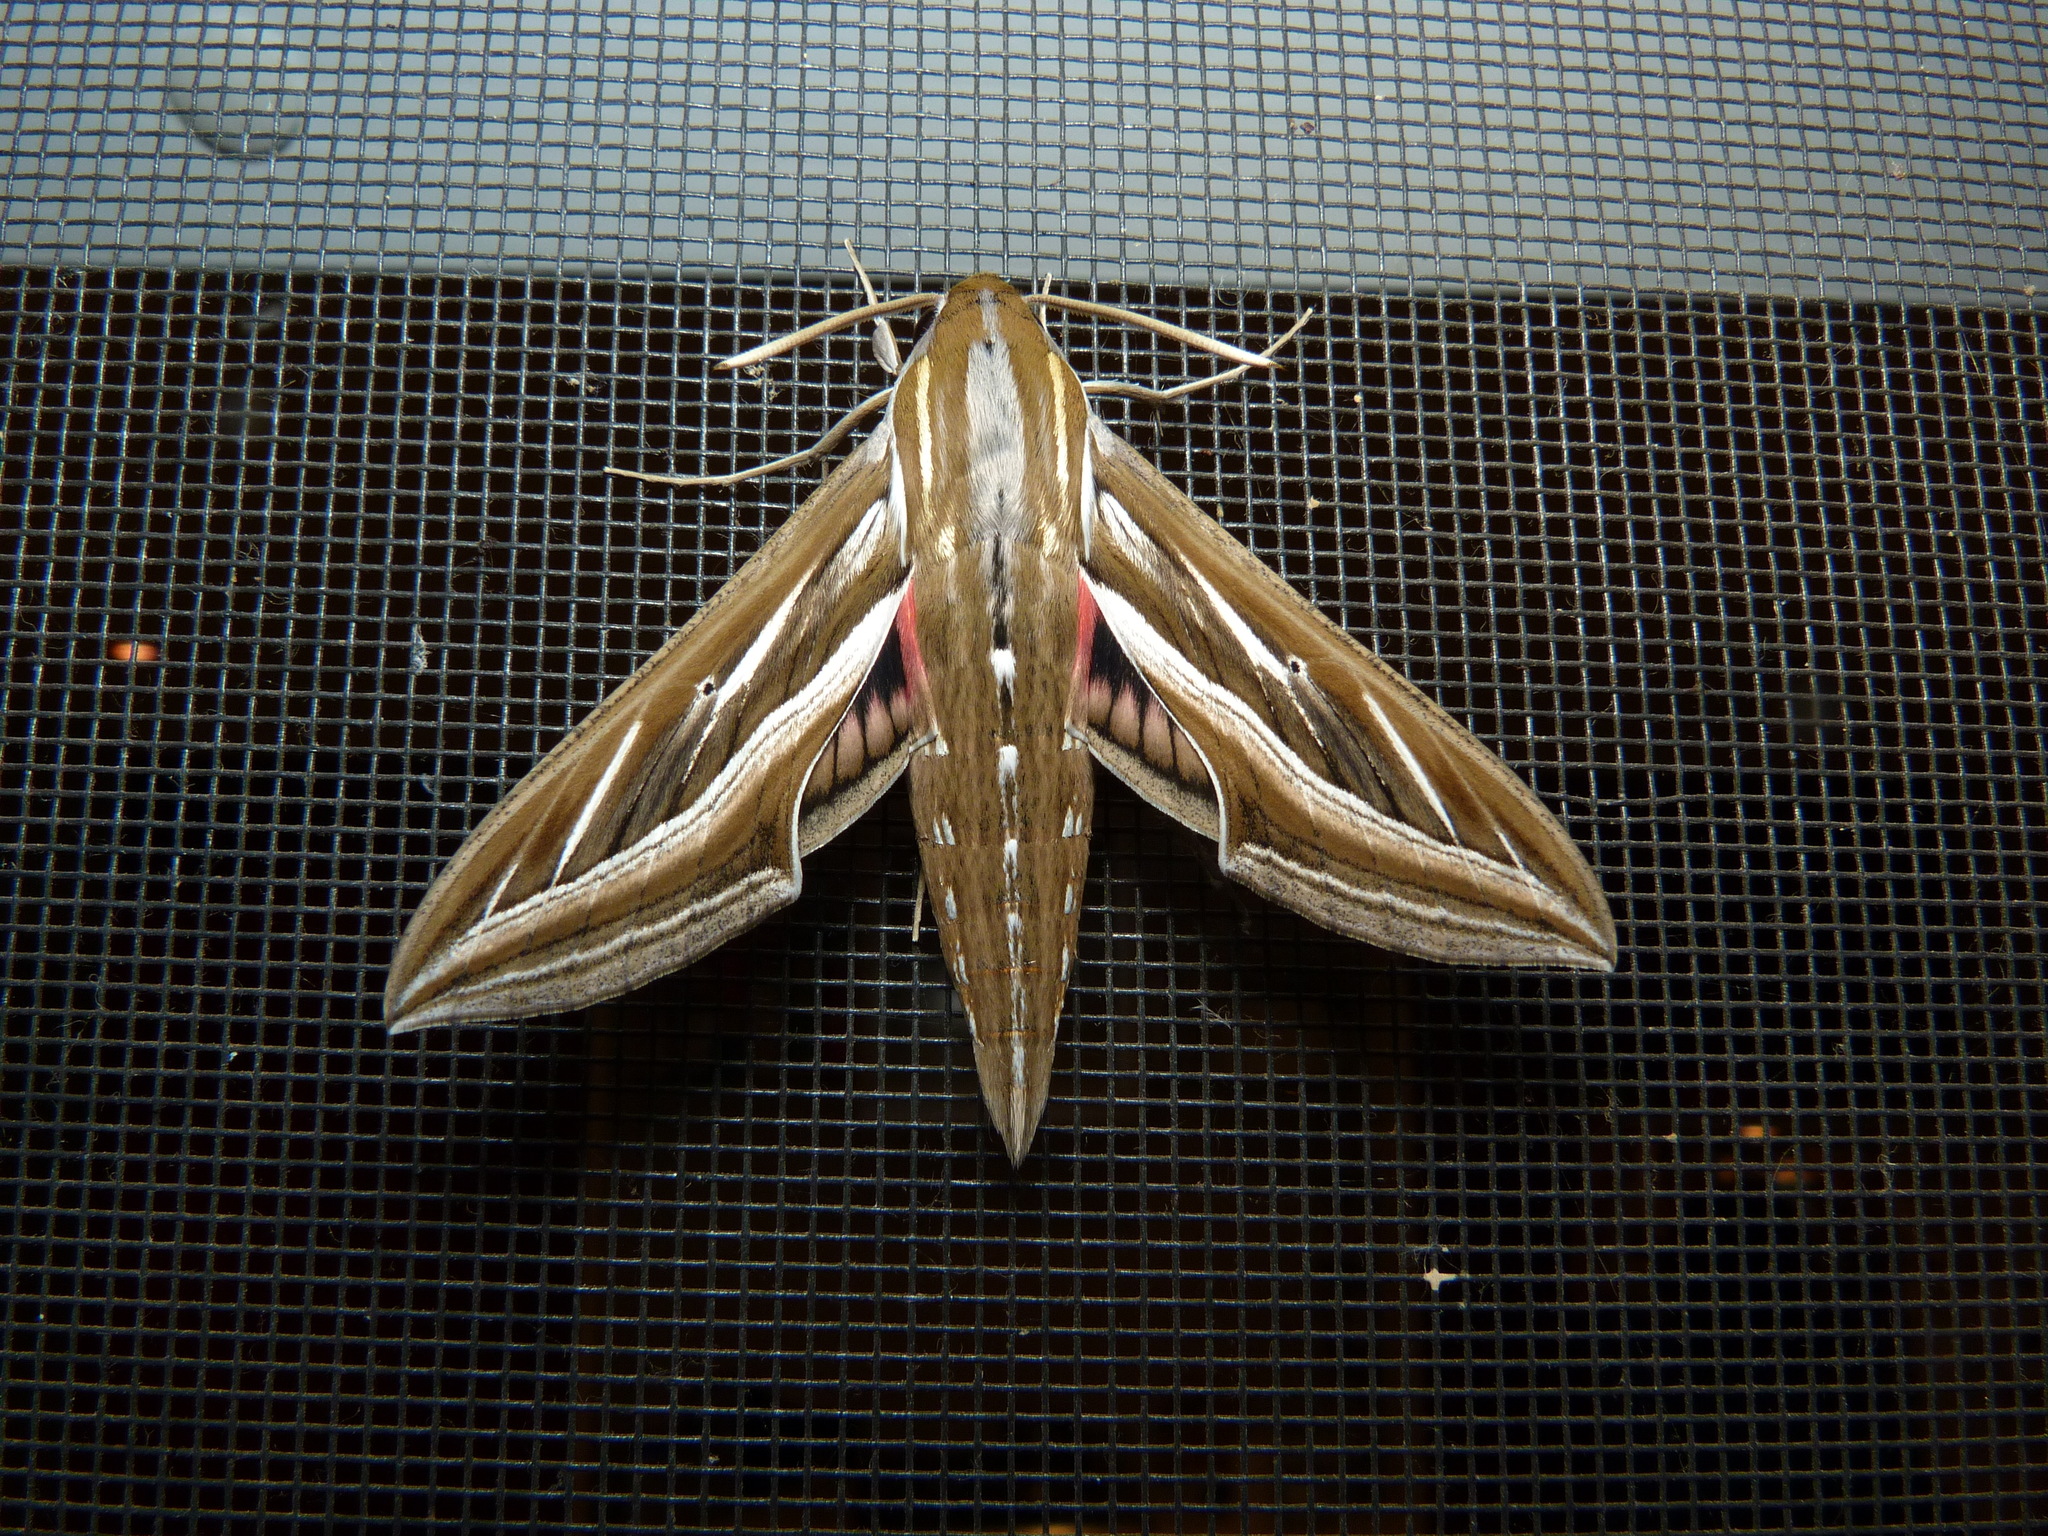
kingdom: Animalia
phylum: Arthropoda
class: Insecta
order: Lepidoptera
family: Sphingidae
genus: Hippotion
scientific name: Hippotion celerio
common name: Silver-striped hawk-moth
